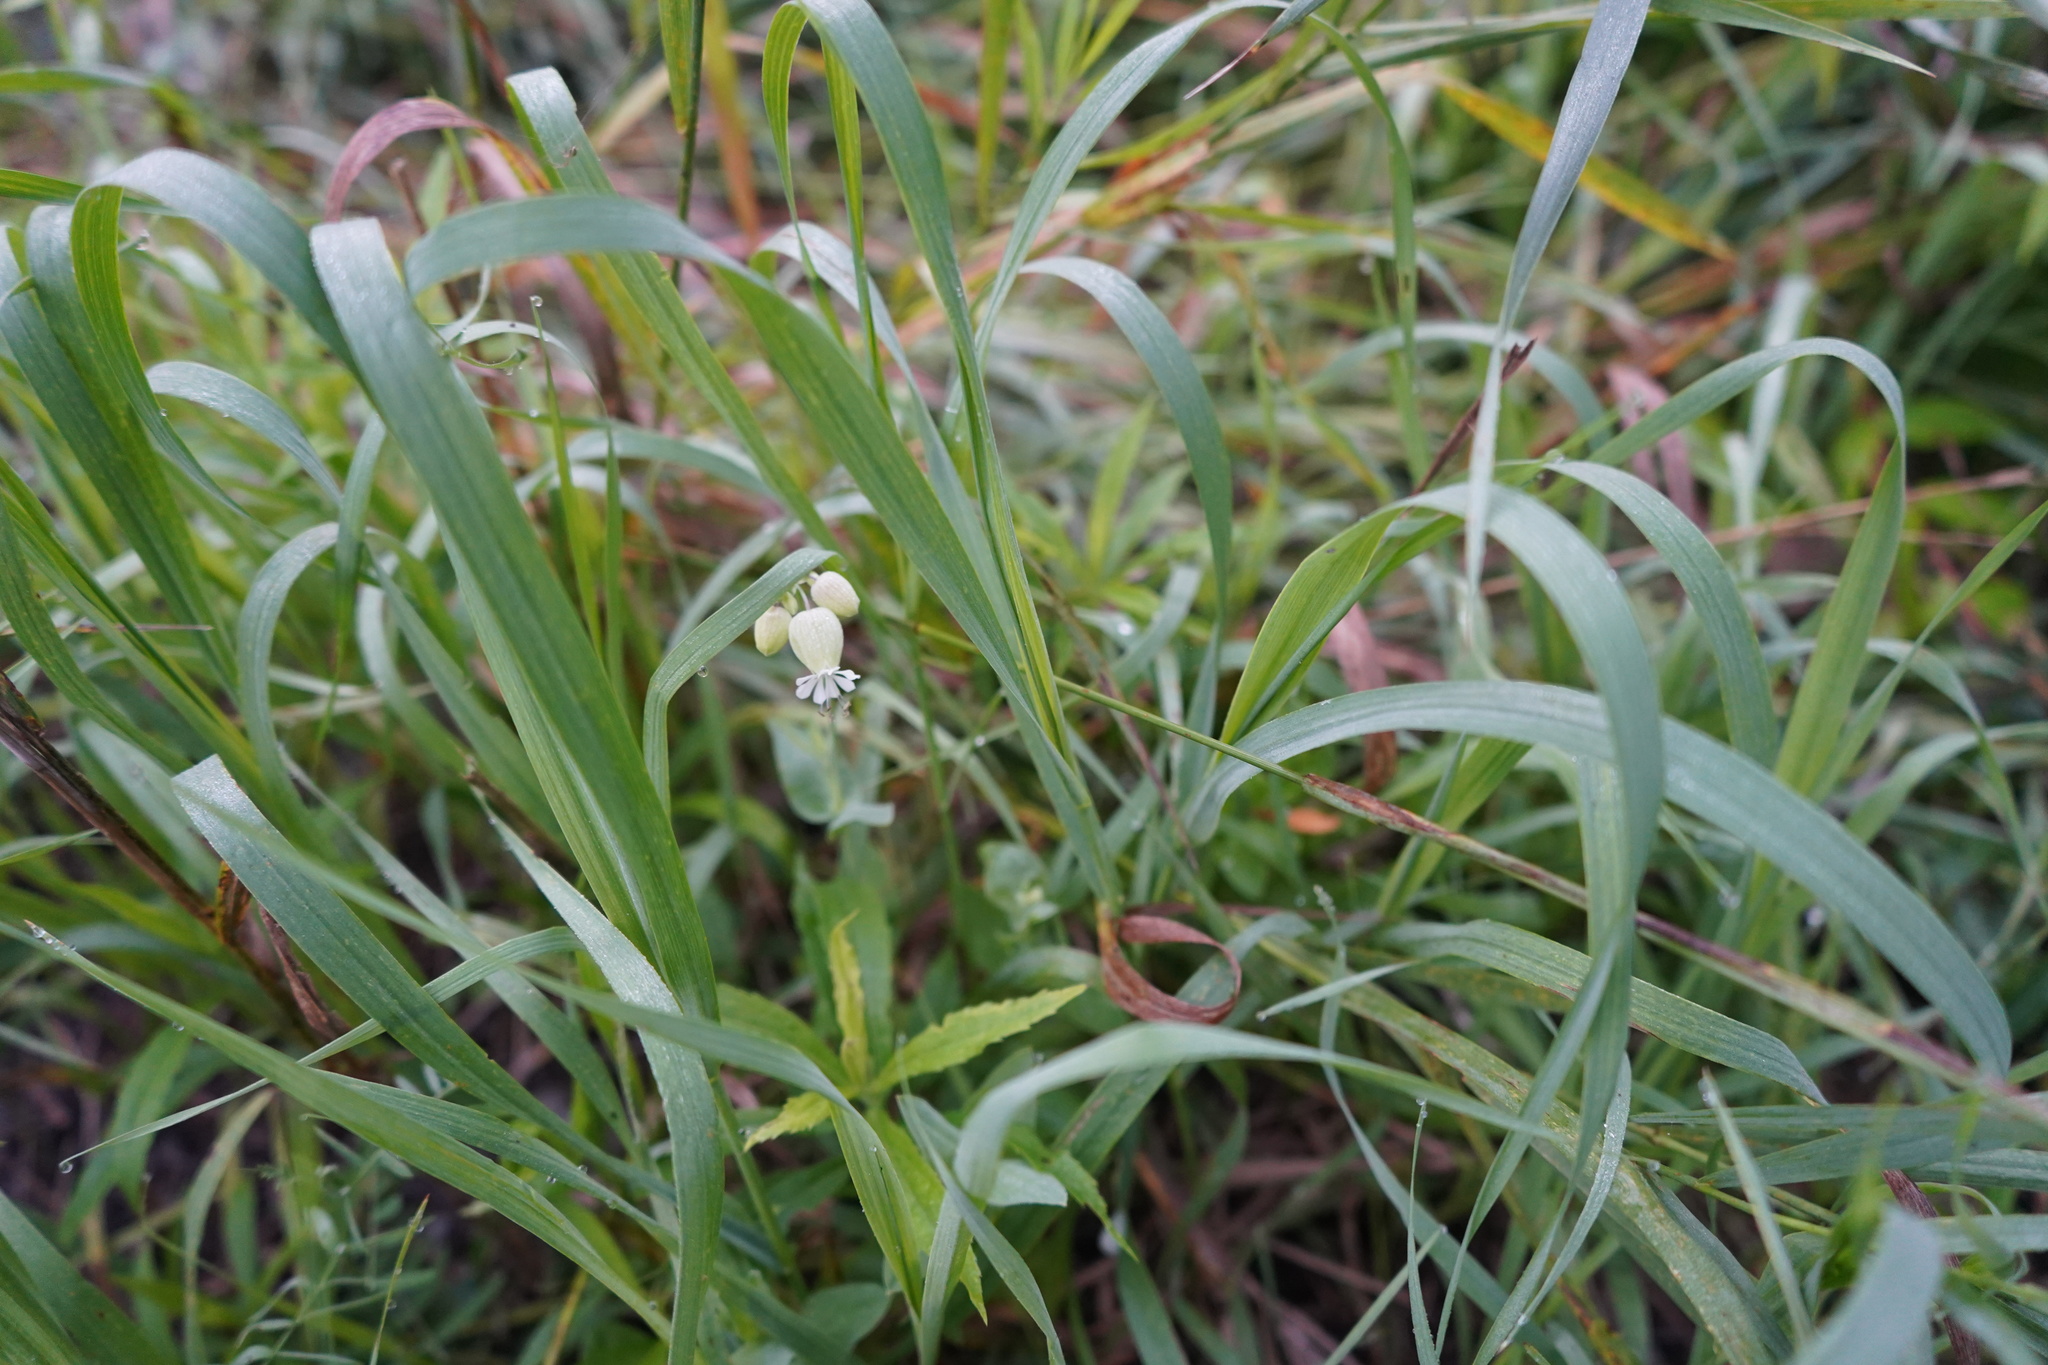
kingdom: Plantae
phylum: Tracheophyta
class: Magnoliopsida
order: Caryophyllales
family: Caryophyllaceae
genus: Silene
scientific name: Silene vulgaris
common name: Bladder campion
